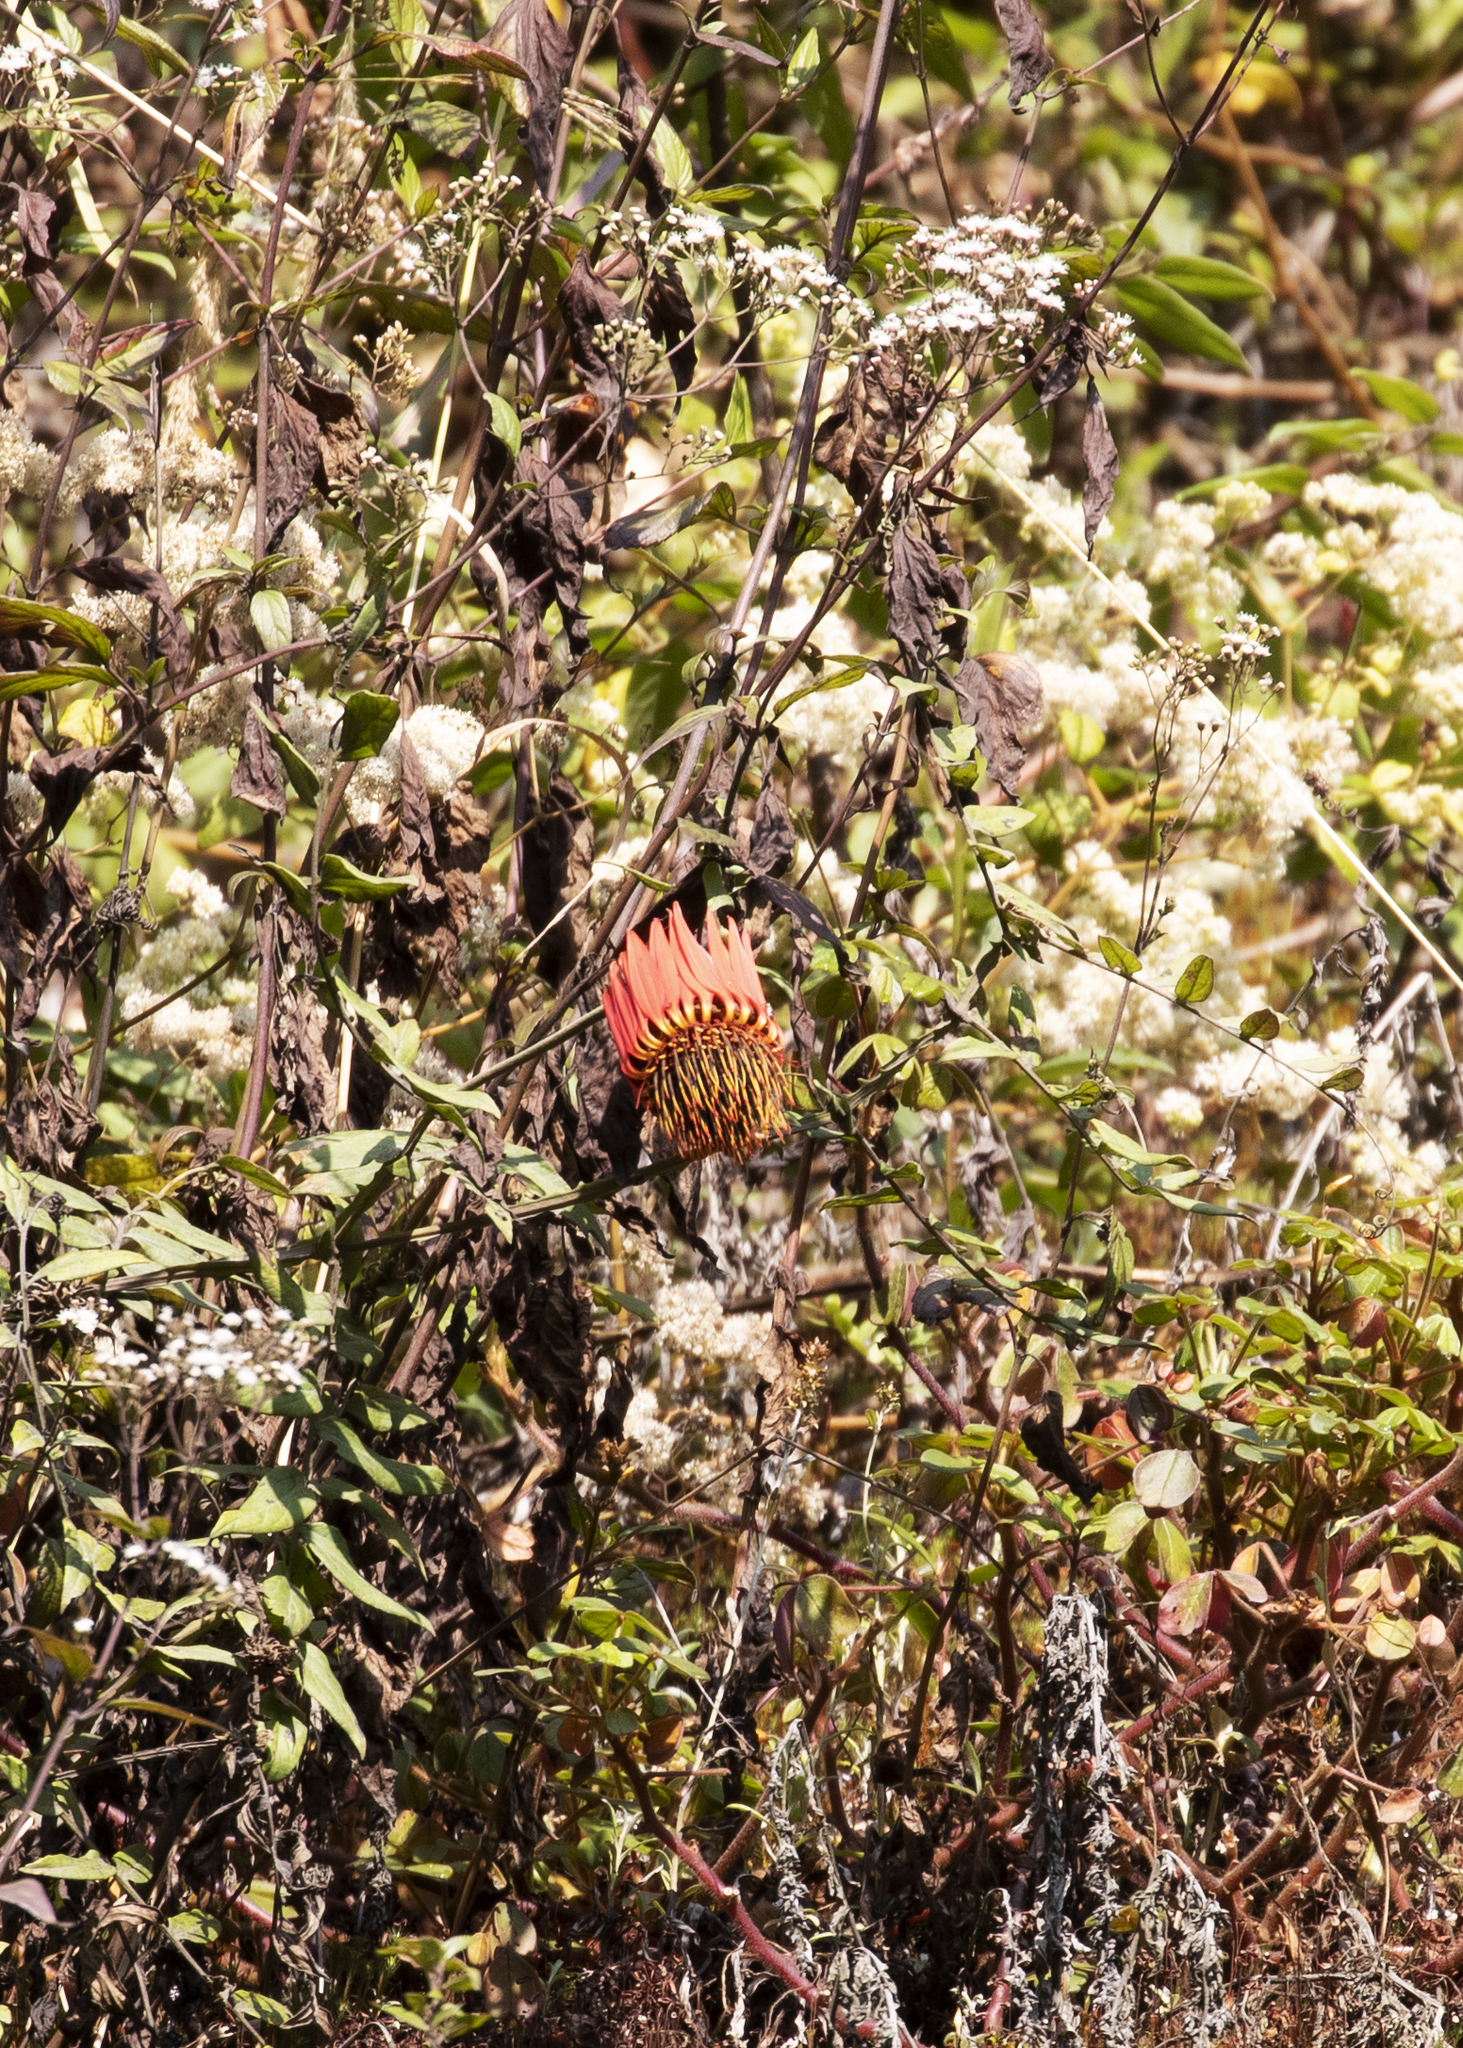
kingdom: Plantae
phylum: Tracheophyta
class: Magnoliopsida
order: Asterales
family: Asteraceae
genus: Mutisia
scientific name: Mutisia lanata
